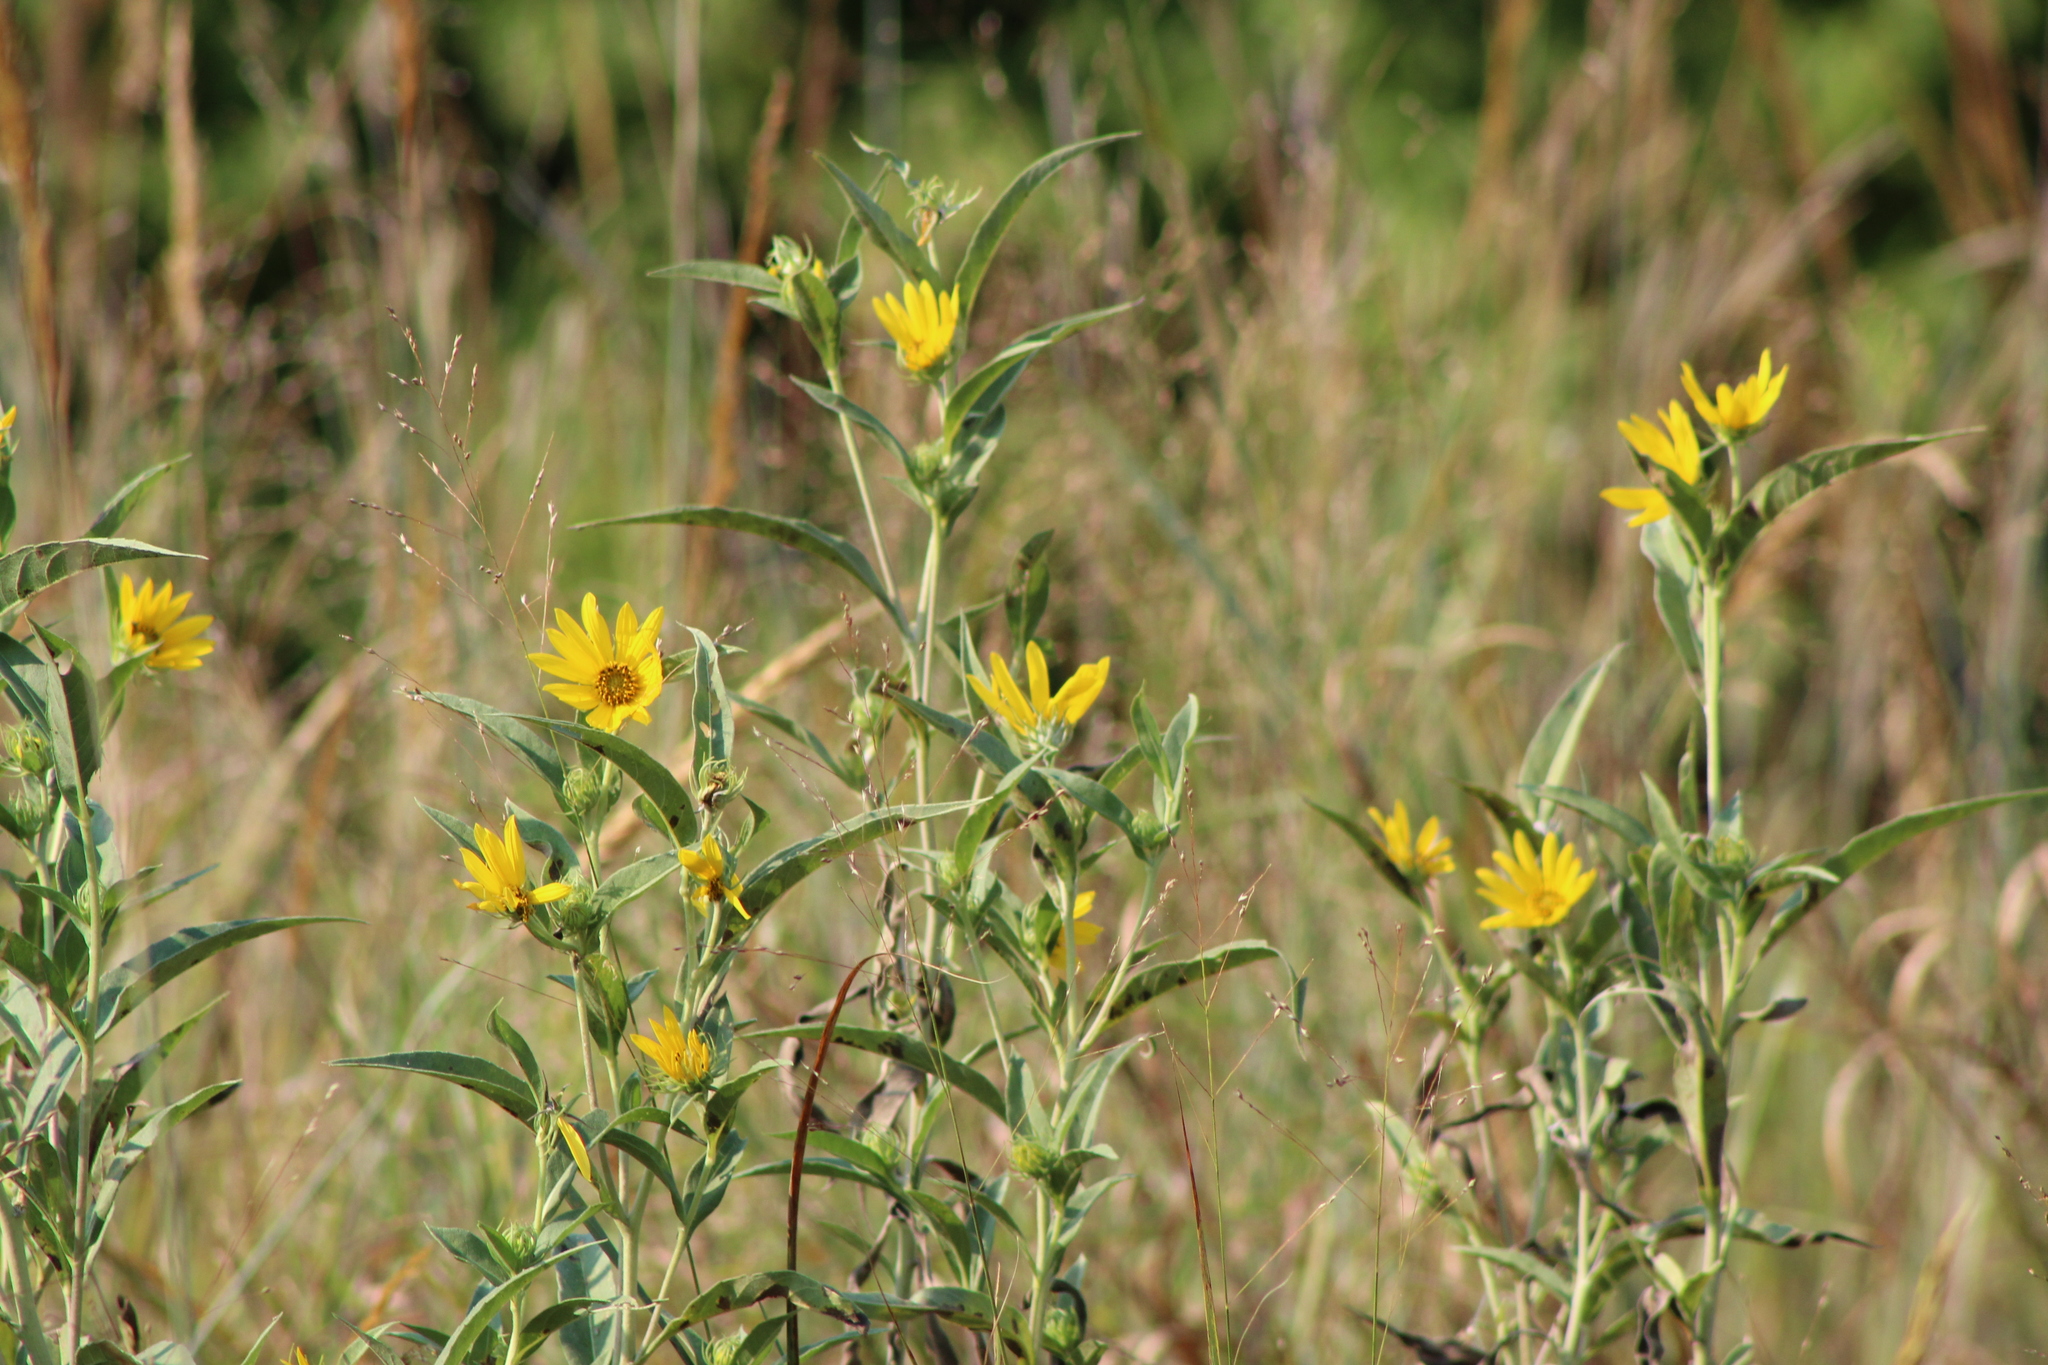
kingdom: Plantae
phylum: Tracheophyta
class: Magnoliopsida
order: Asterales
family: Asteraceae
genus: Helianthus
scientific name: Helianthus maximiliani
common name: Maximilian's sunflower
